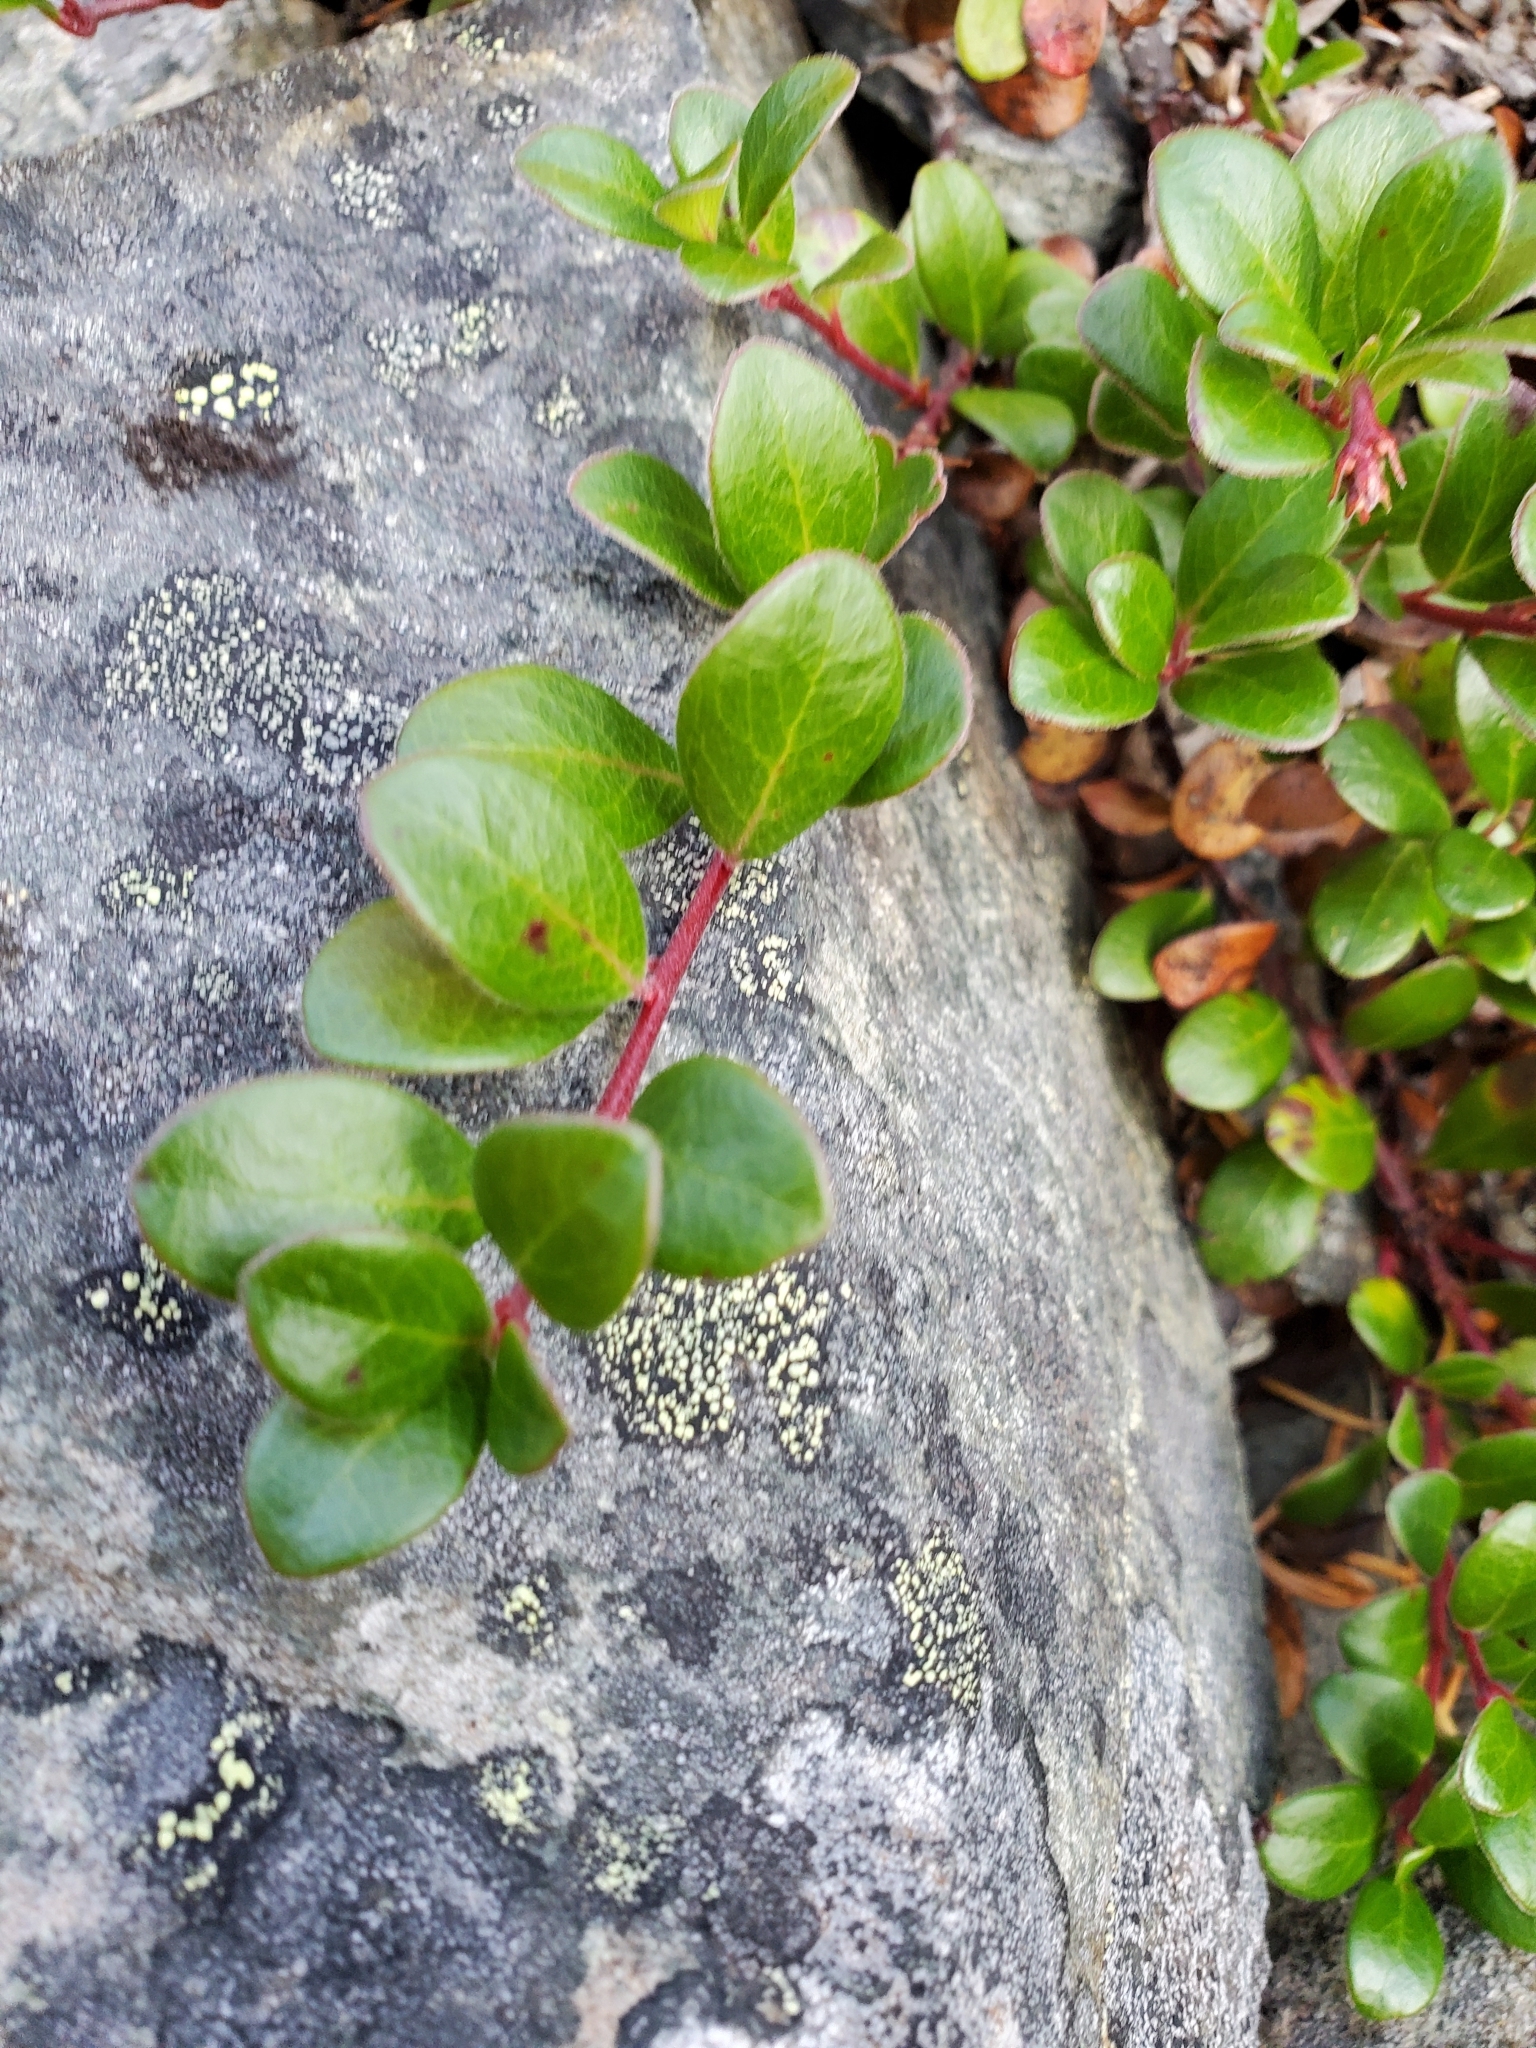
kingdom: Plantae
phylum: Tracheophyta
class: Magnoliopsida
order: Ericales
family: Ericaceae
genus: Arctostaphylos
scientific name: Arctostaphylos uva-ursi
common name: Bearberry
